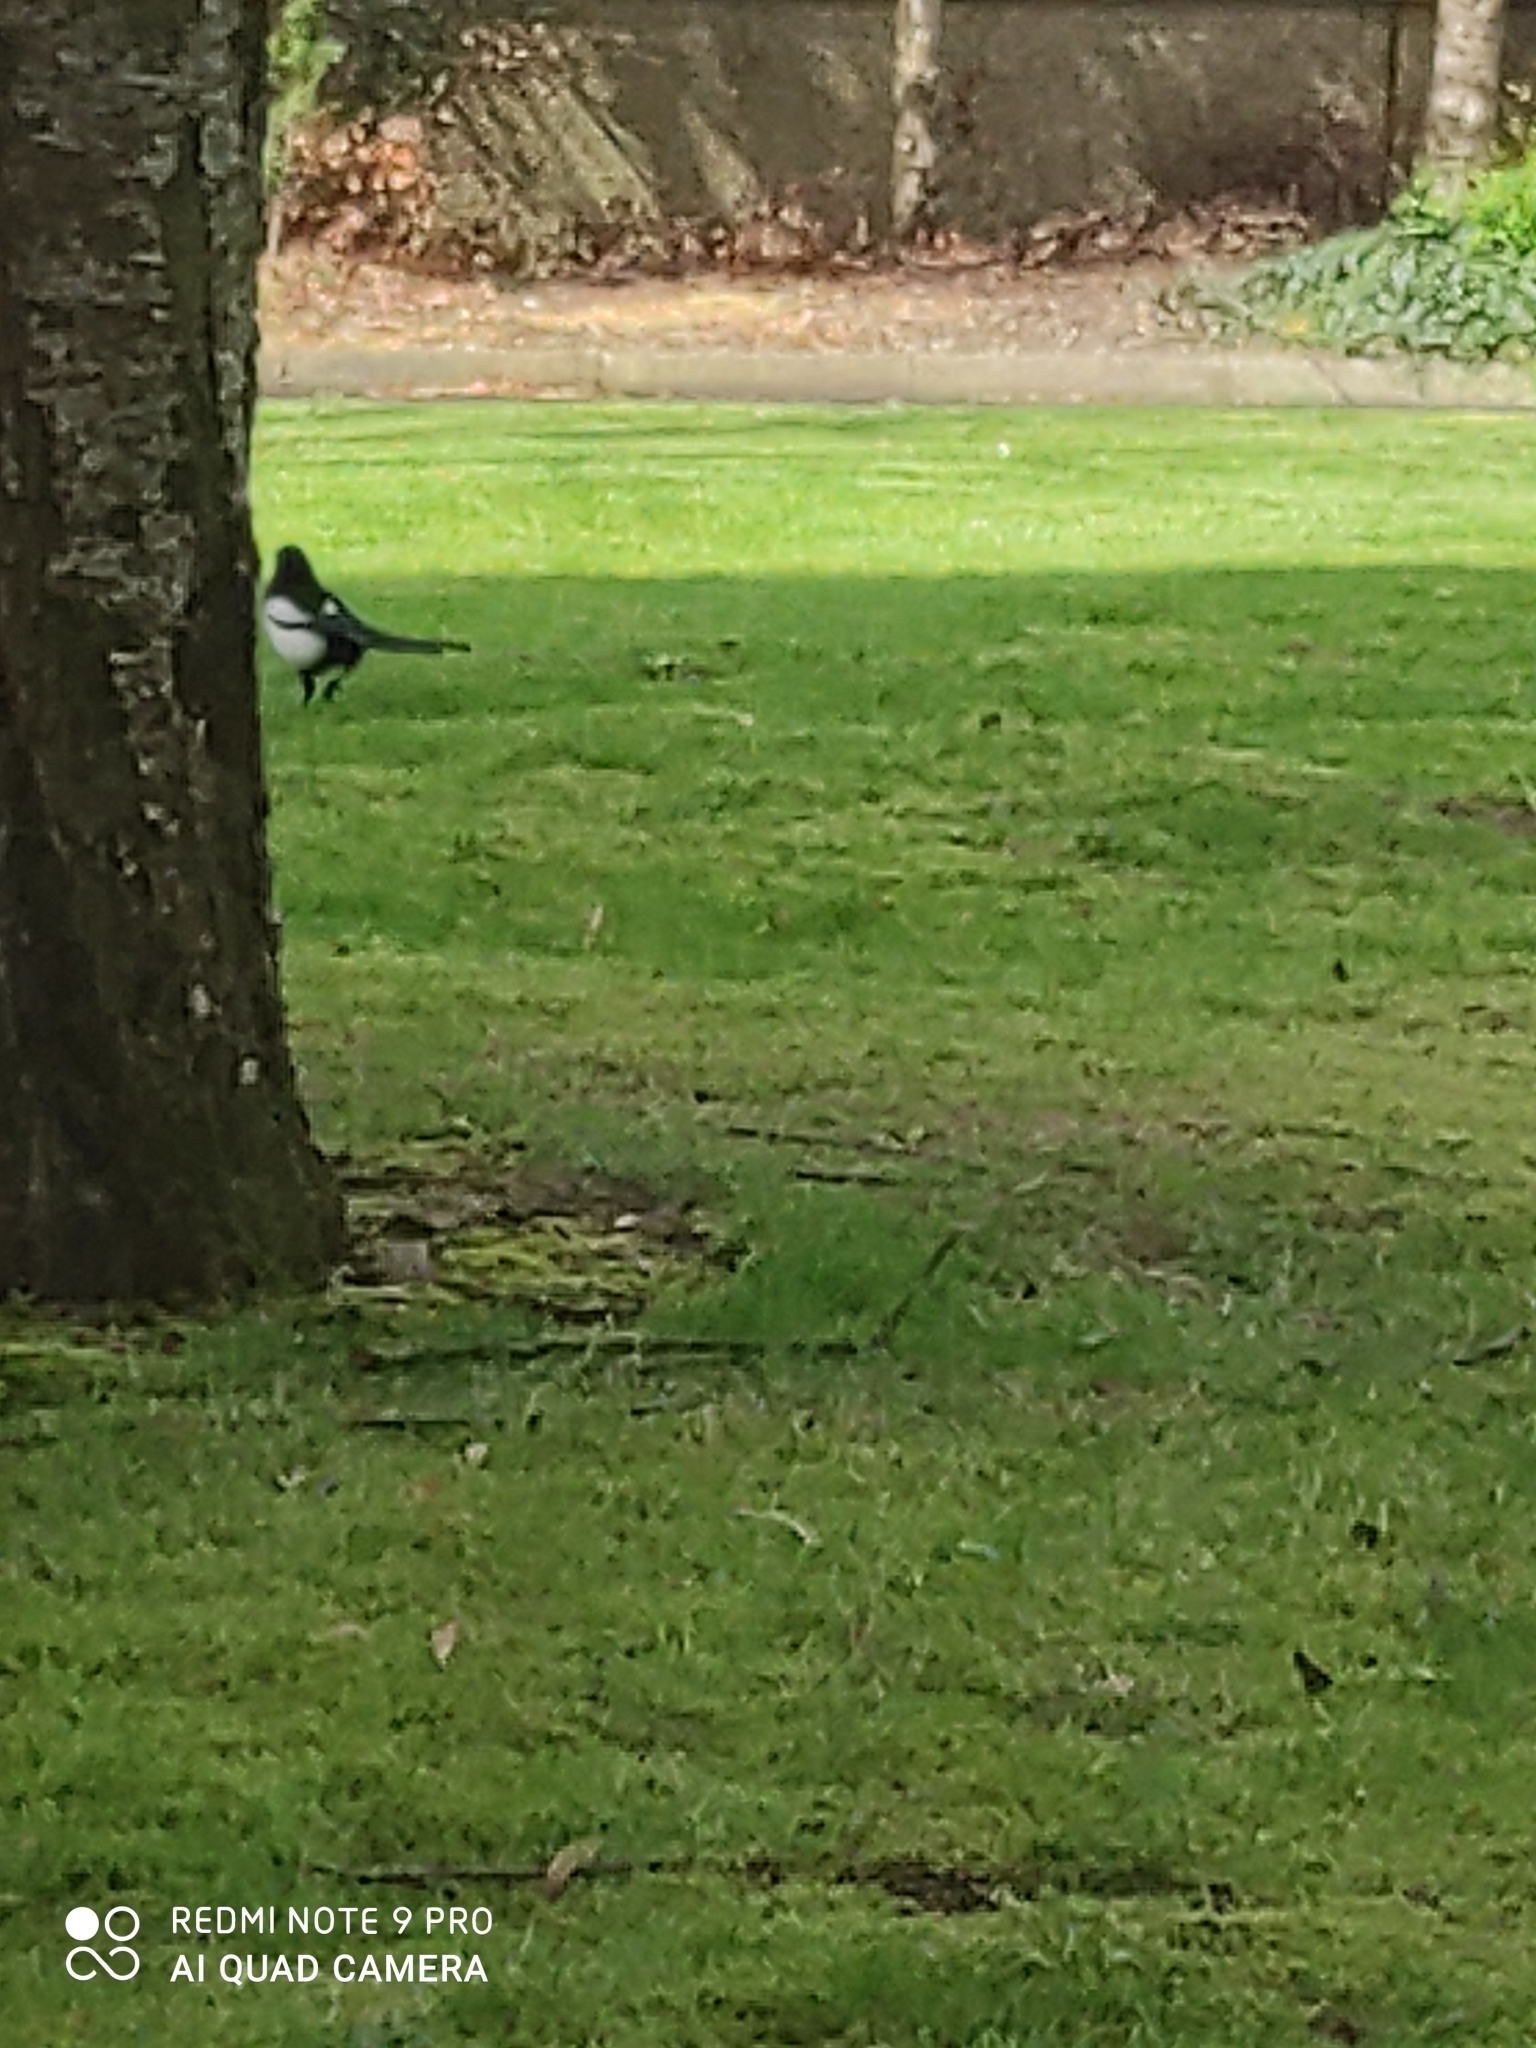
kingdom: Animalia
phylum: Chordata
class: Aves
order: Passeriformes
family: Corvidae
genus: Pica
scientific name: Pica pica
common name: Eurasian magpie
